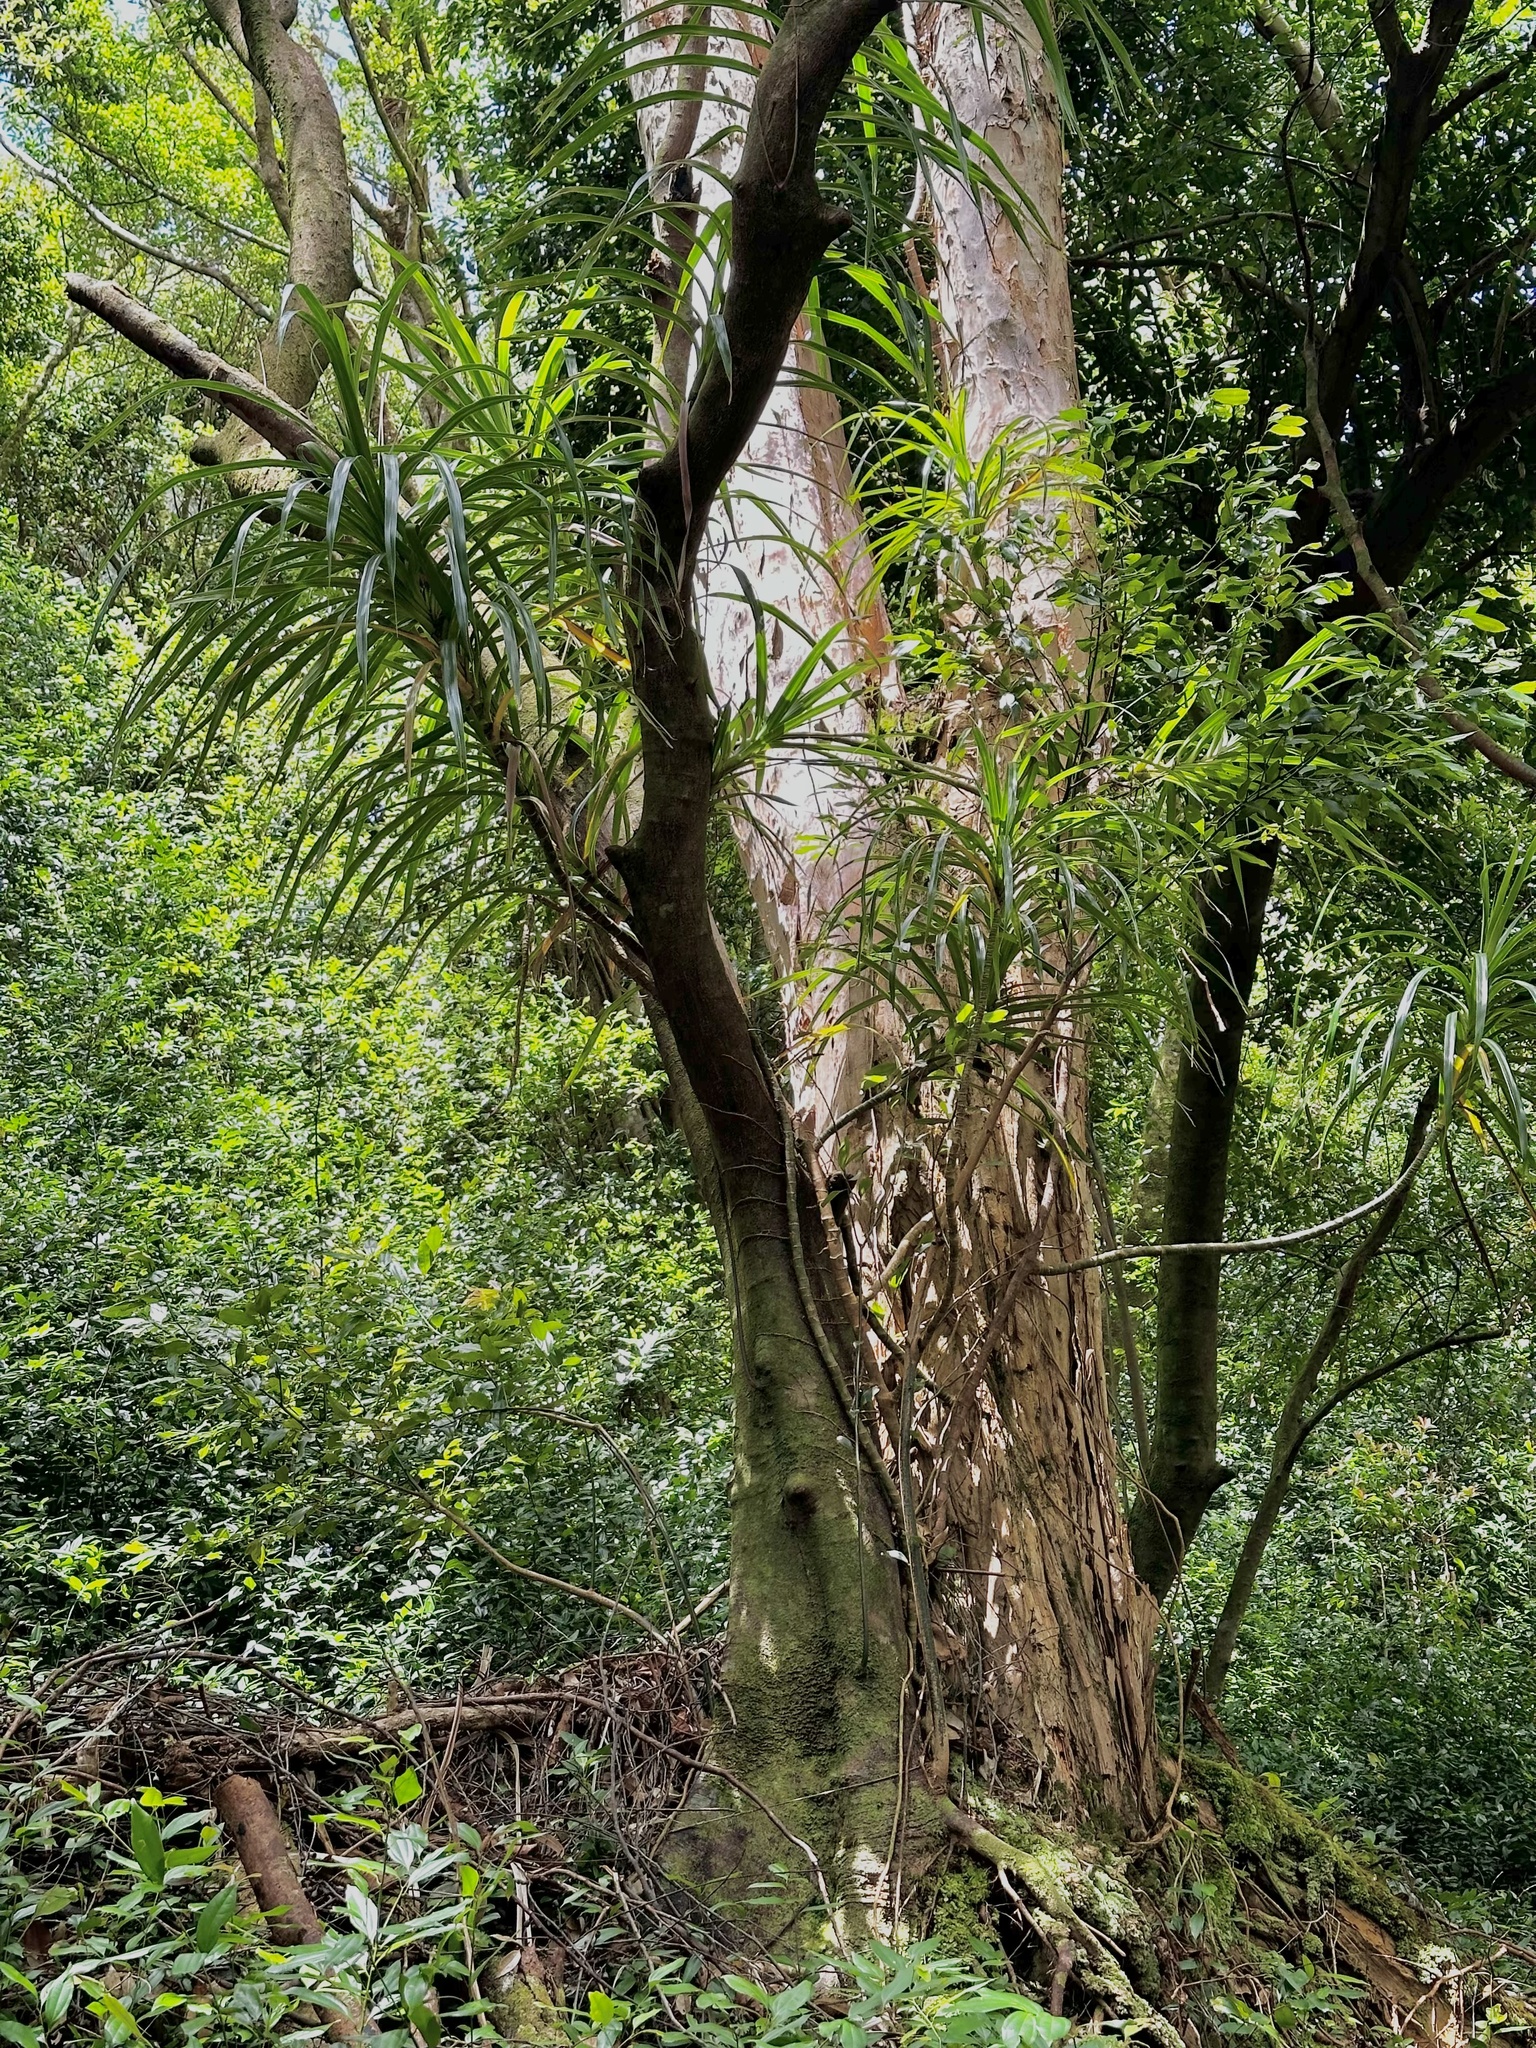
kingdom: Plantae
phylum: Tracheophyta
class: Liliopsida
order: Pandanales
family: Pandanaceae
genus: Freycinetia
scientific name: Freycinetia arborea
